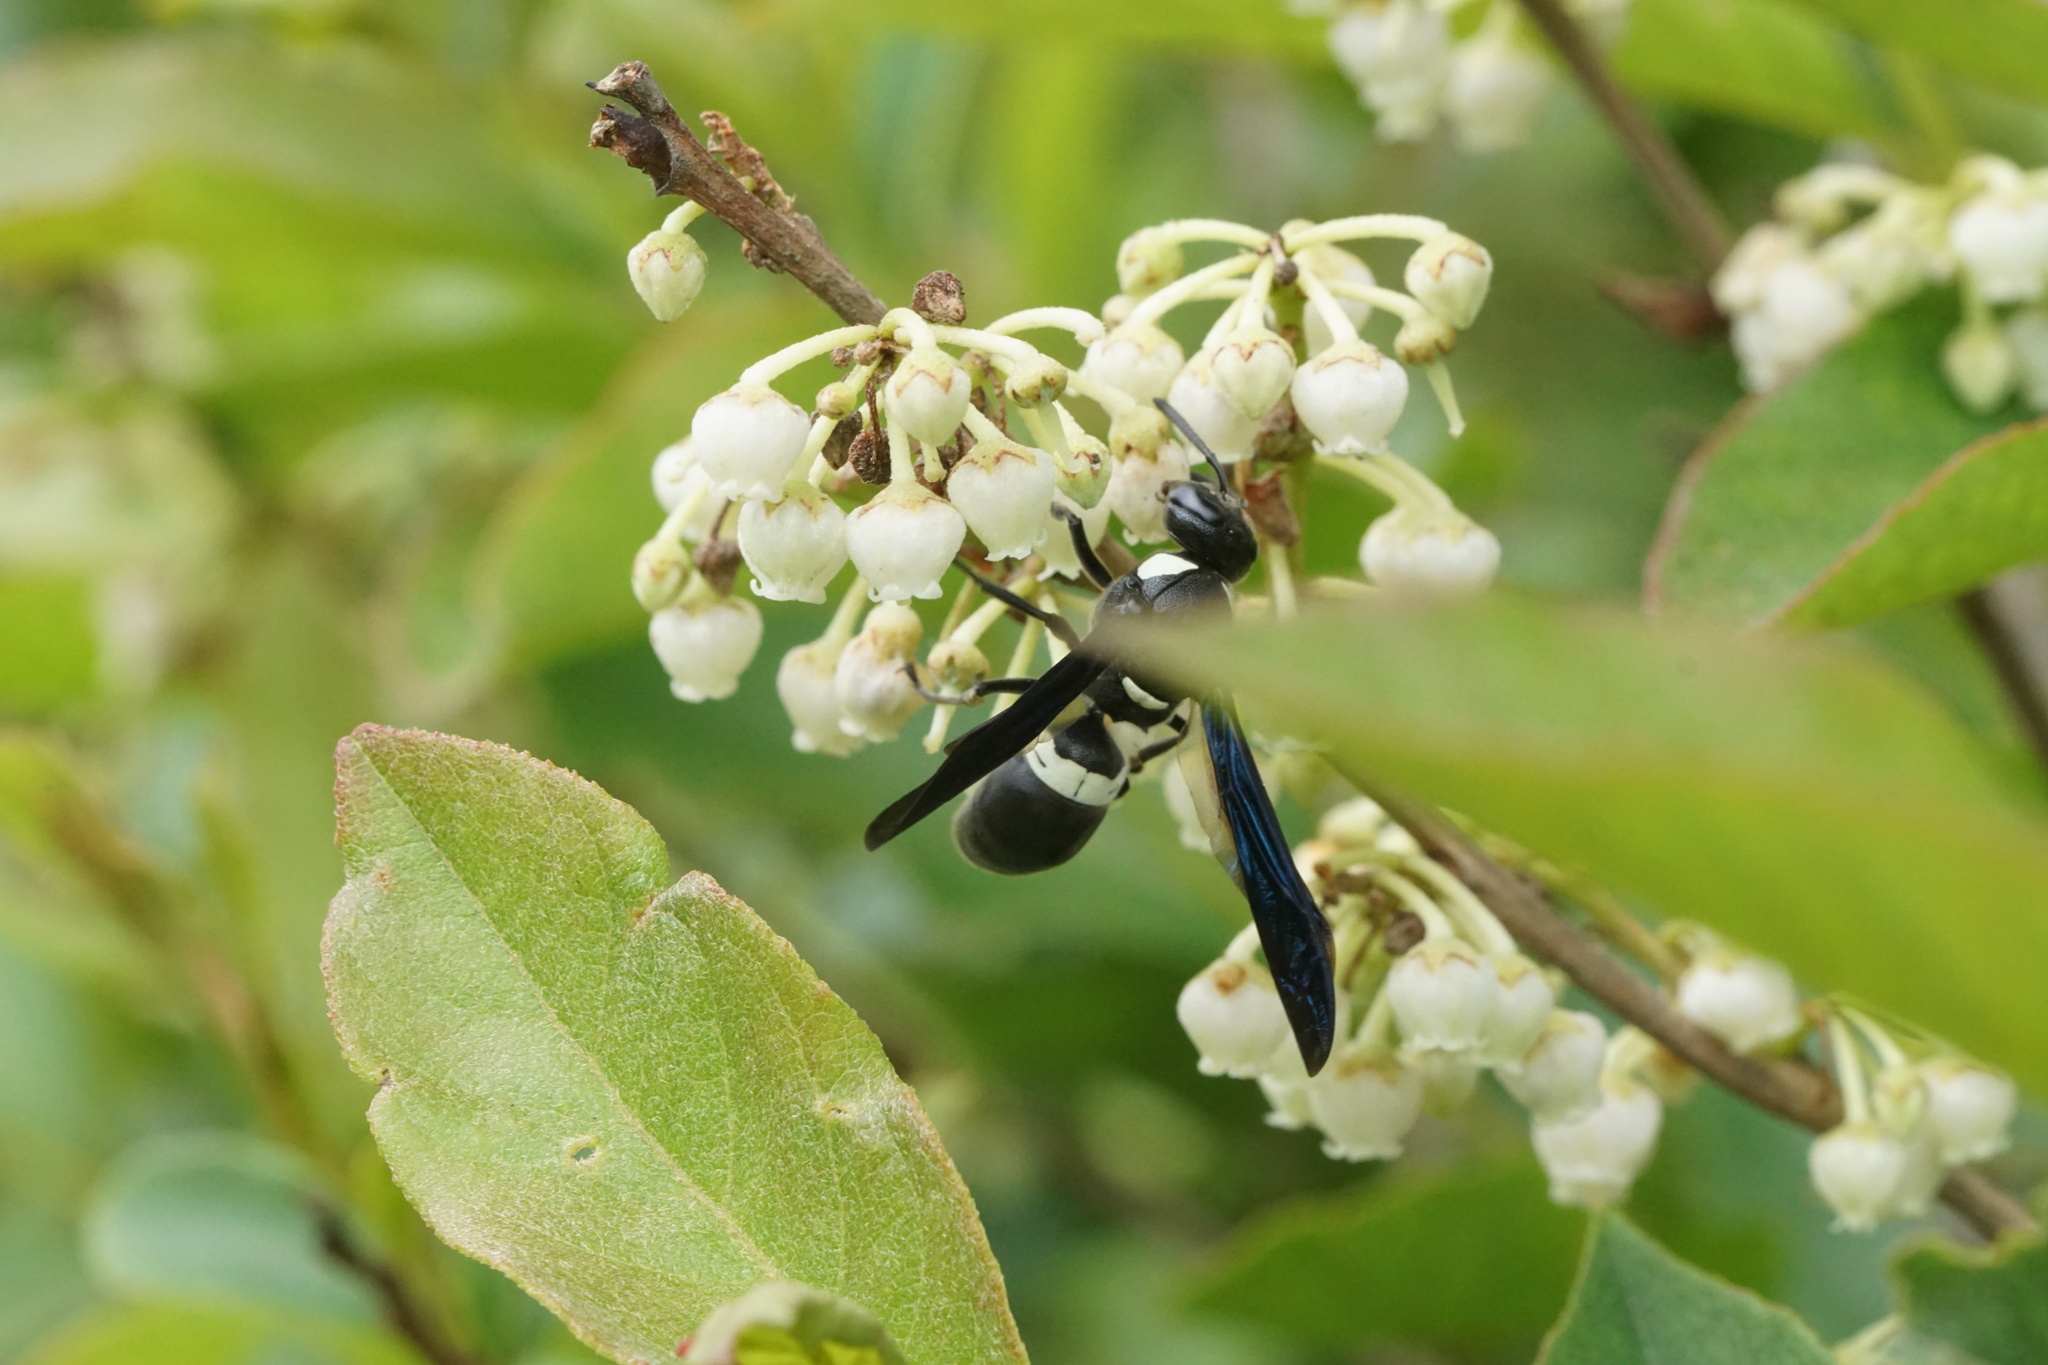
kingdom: Animalia
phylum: Arthropoda
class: Insecta
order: Hymenoptera
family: Eumenidae
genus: Monobia
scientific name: Monobia quadridens
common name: Four-toothed mason wasp
